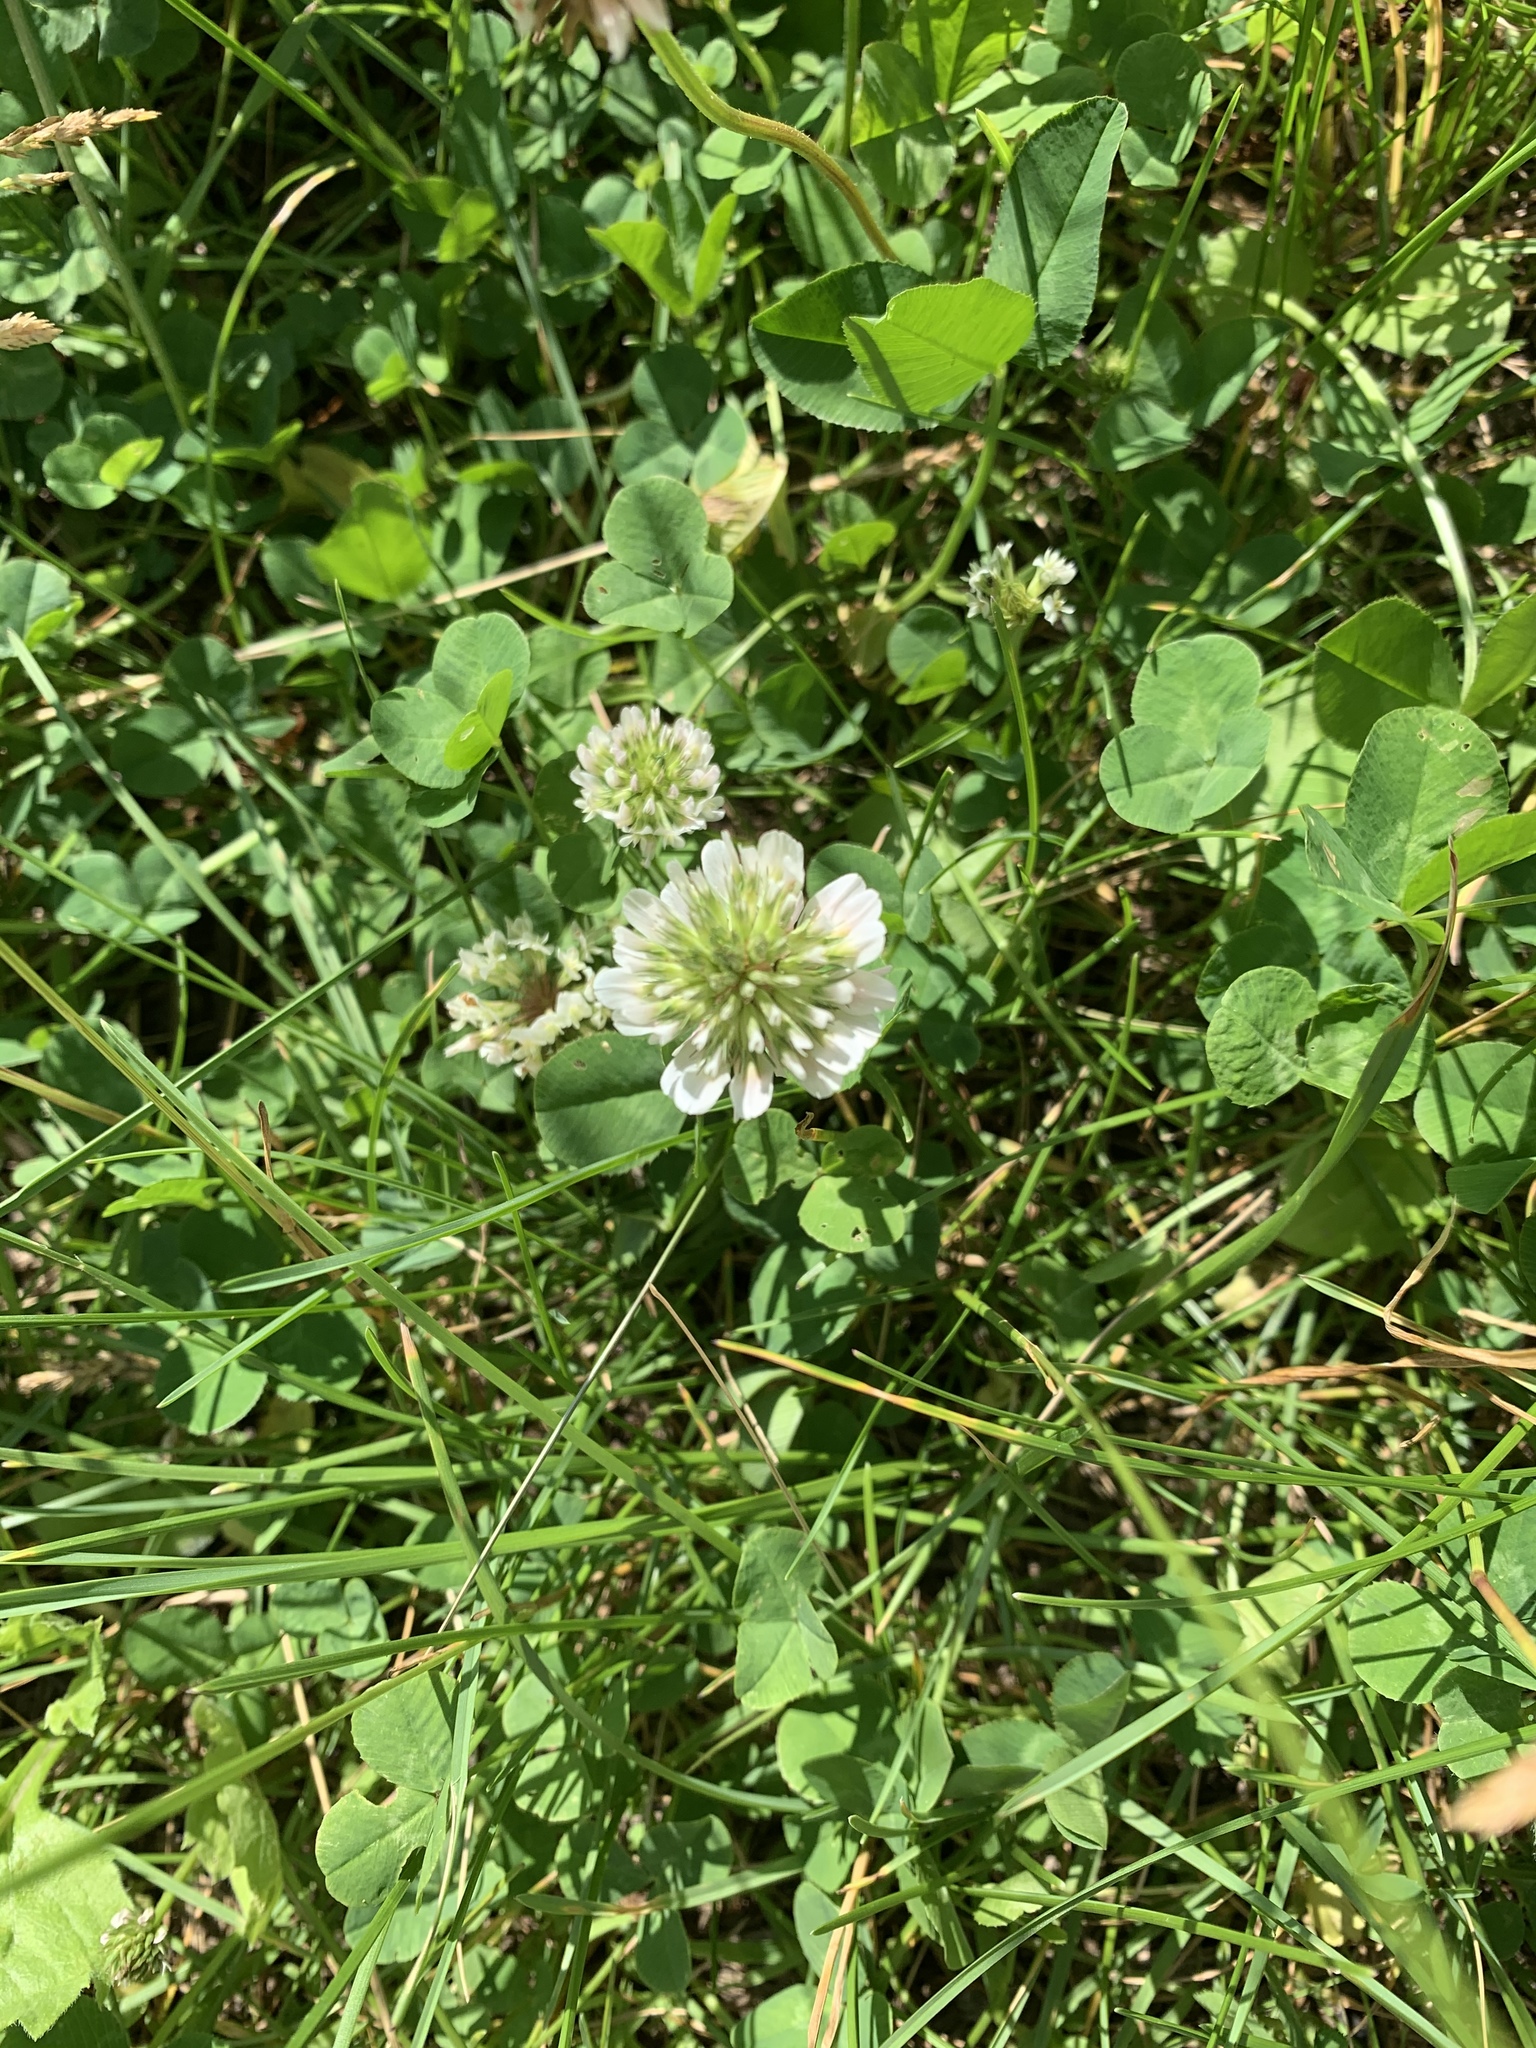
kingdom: Plantae
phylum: Tracheophyta
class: Magnoliopsida
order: Fabales
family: Fabaceae
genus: Trifolium
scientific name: Trifolium repens
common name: White clover
